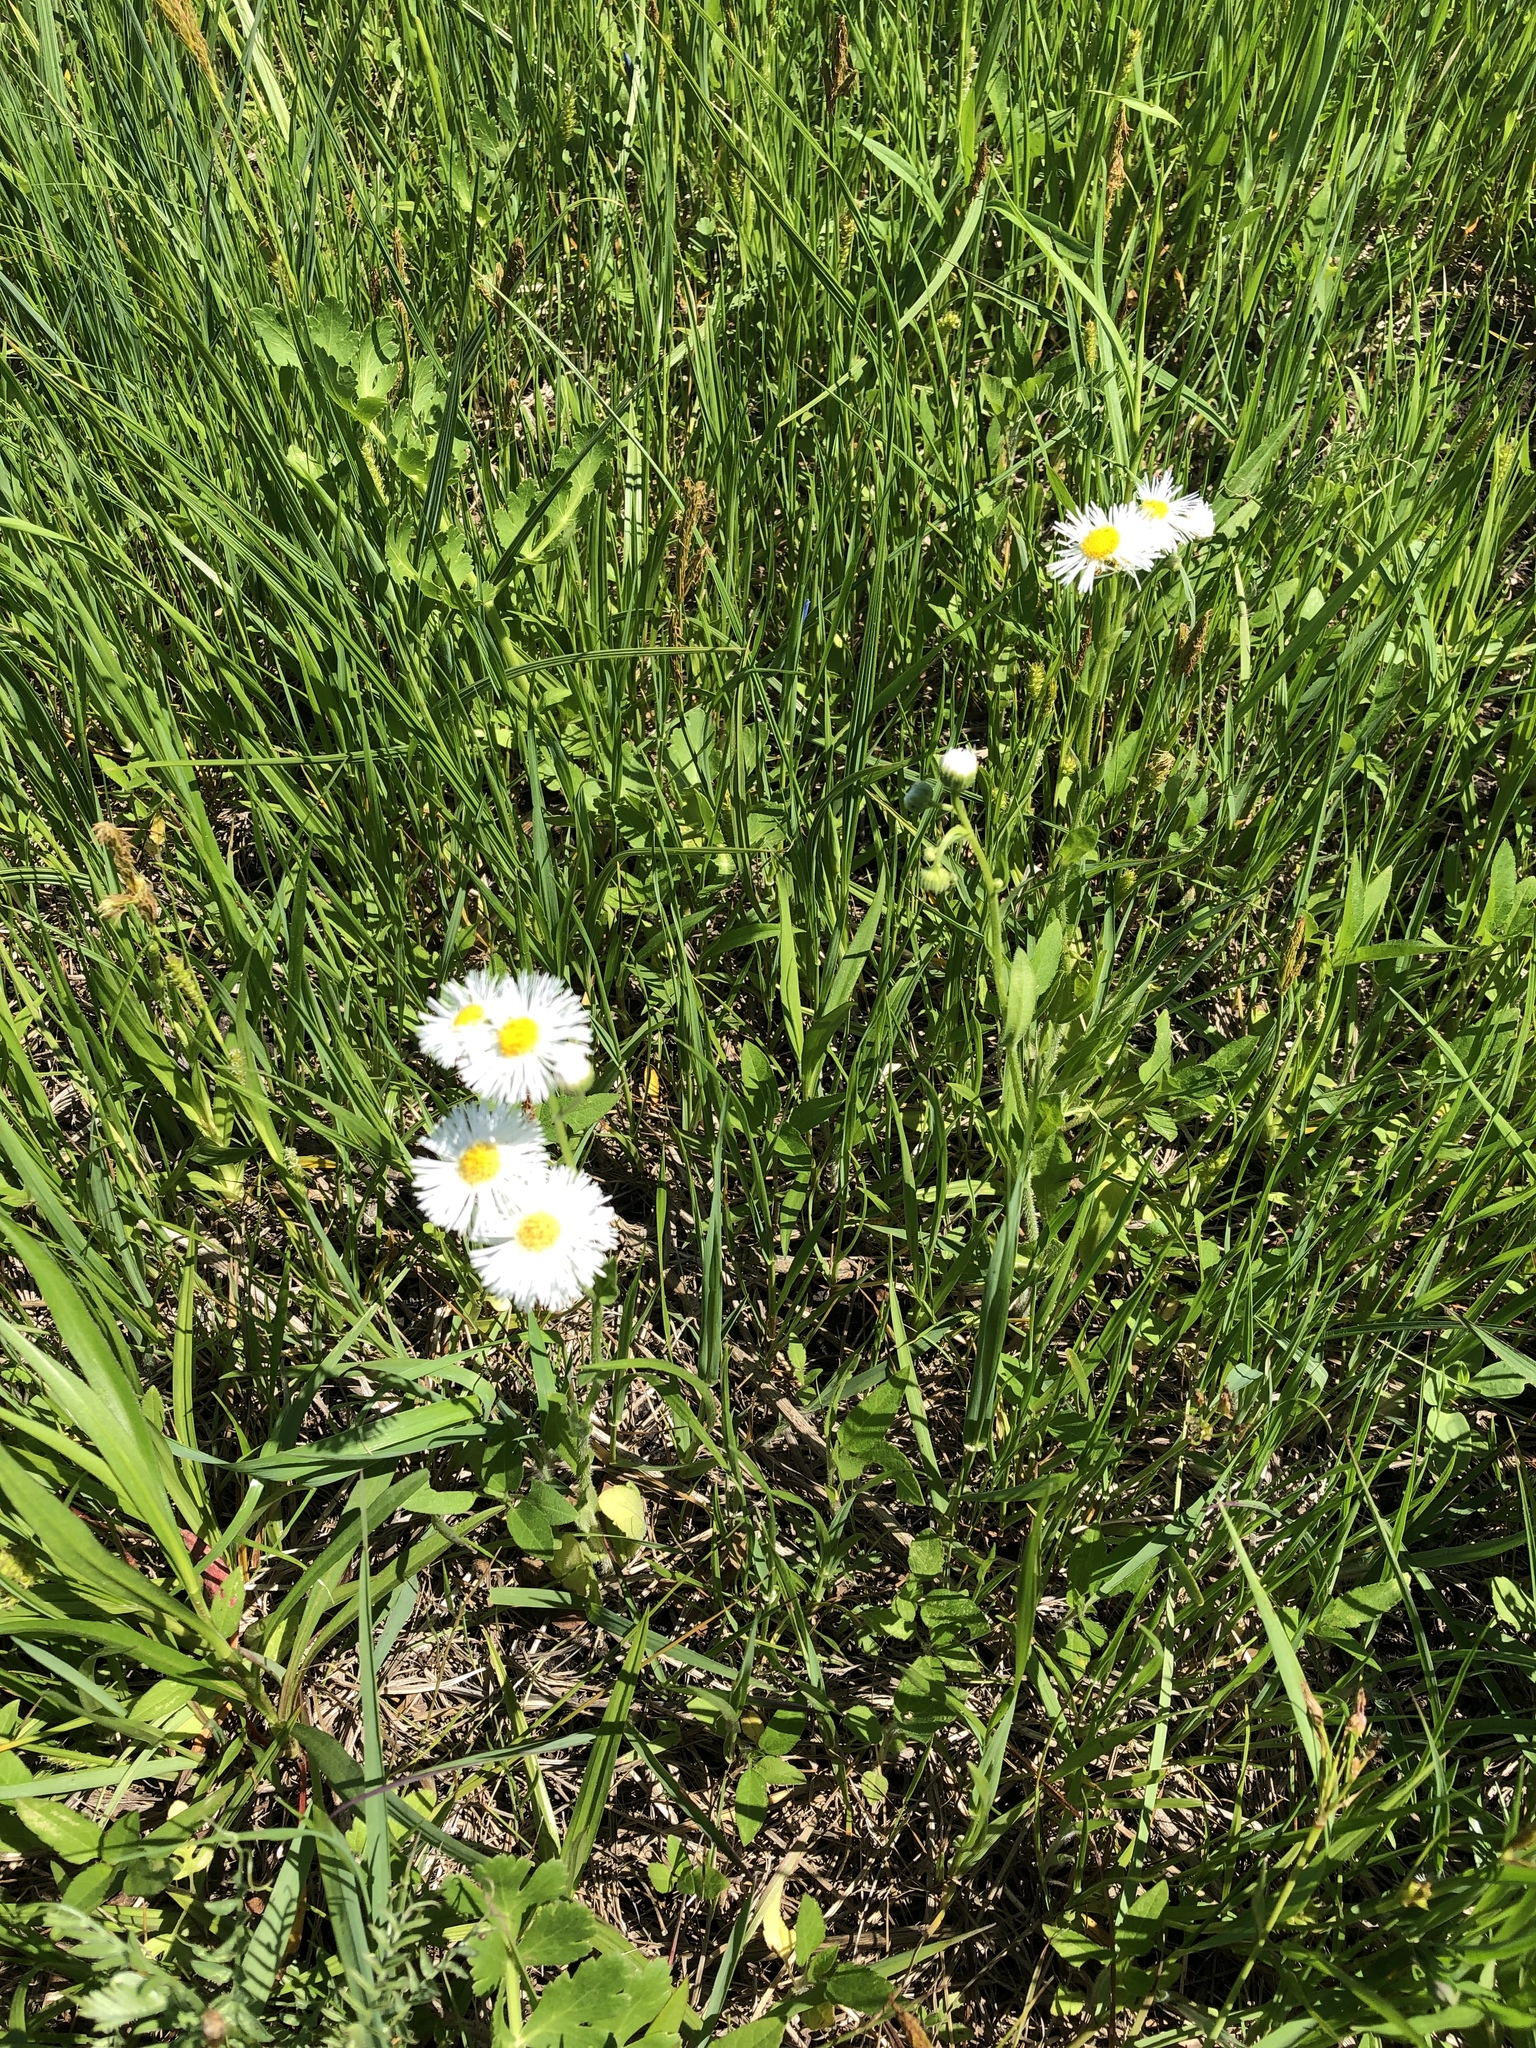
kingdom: Plantae
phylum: Tracheophyta
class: Magnoliopsida
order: Asterales
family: Asteraceae
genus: Erigeron
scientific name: Erigeron strigosus
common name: Common eastern fleabane
